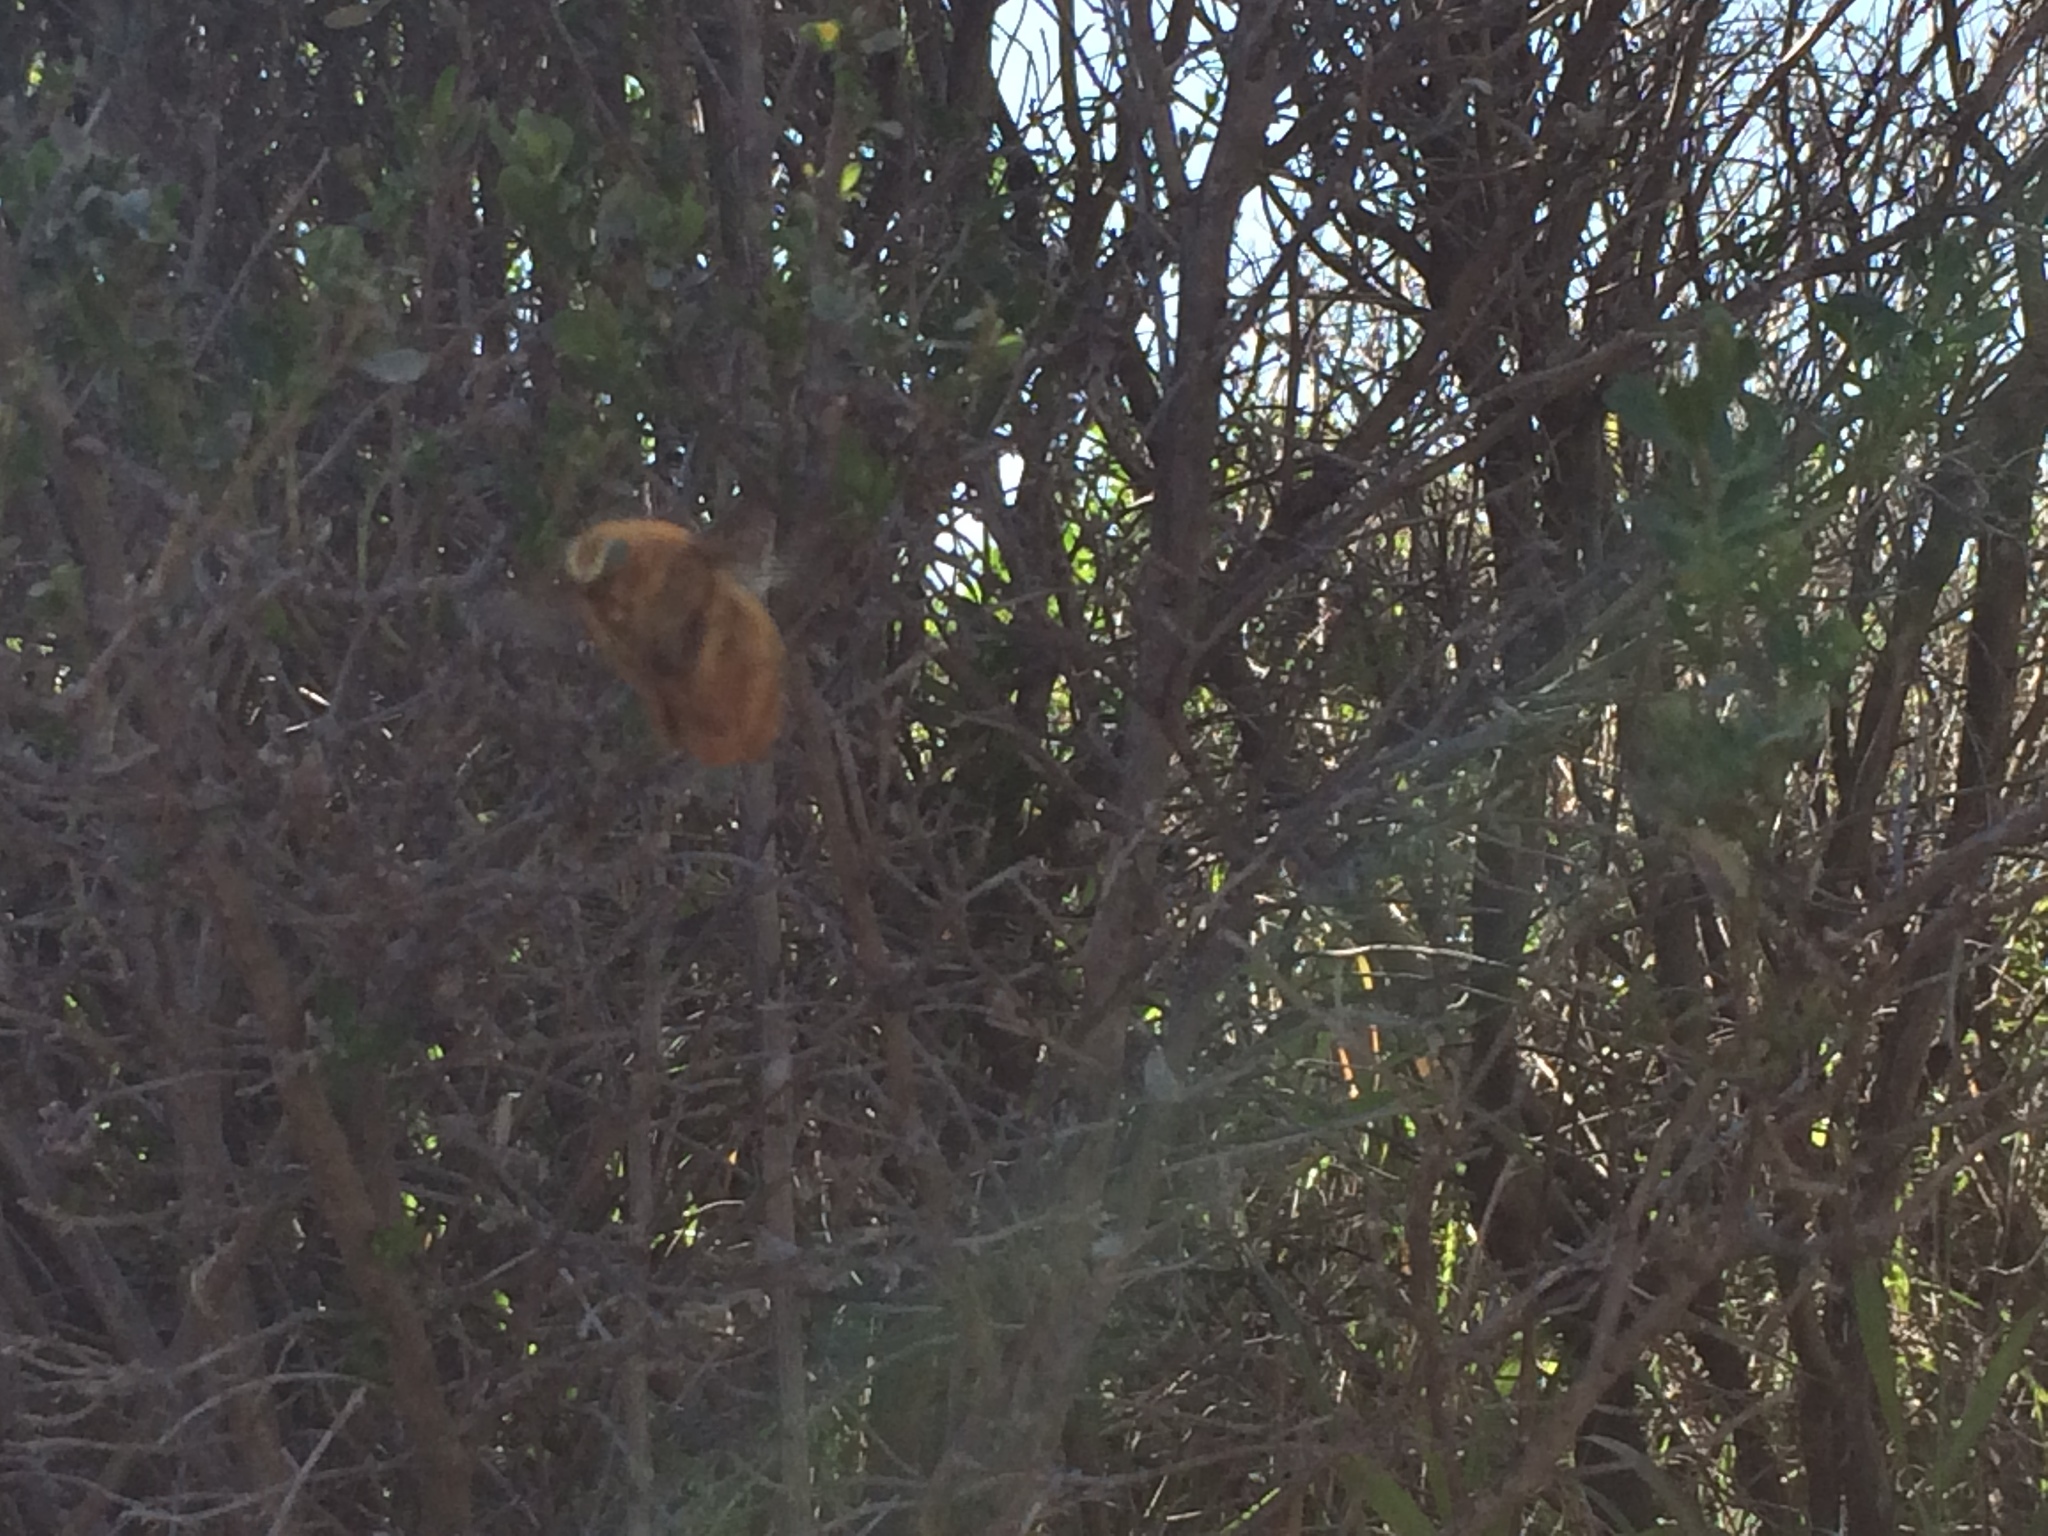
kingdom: Animalia
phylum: Arthropoda
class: Insecta
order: Hymenoptera
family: Apidae
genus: Xylocopa
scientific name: Xylocopa sonorina
